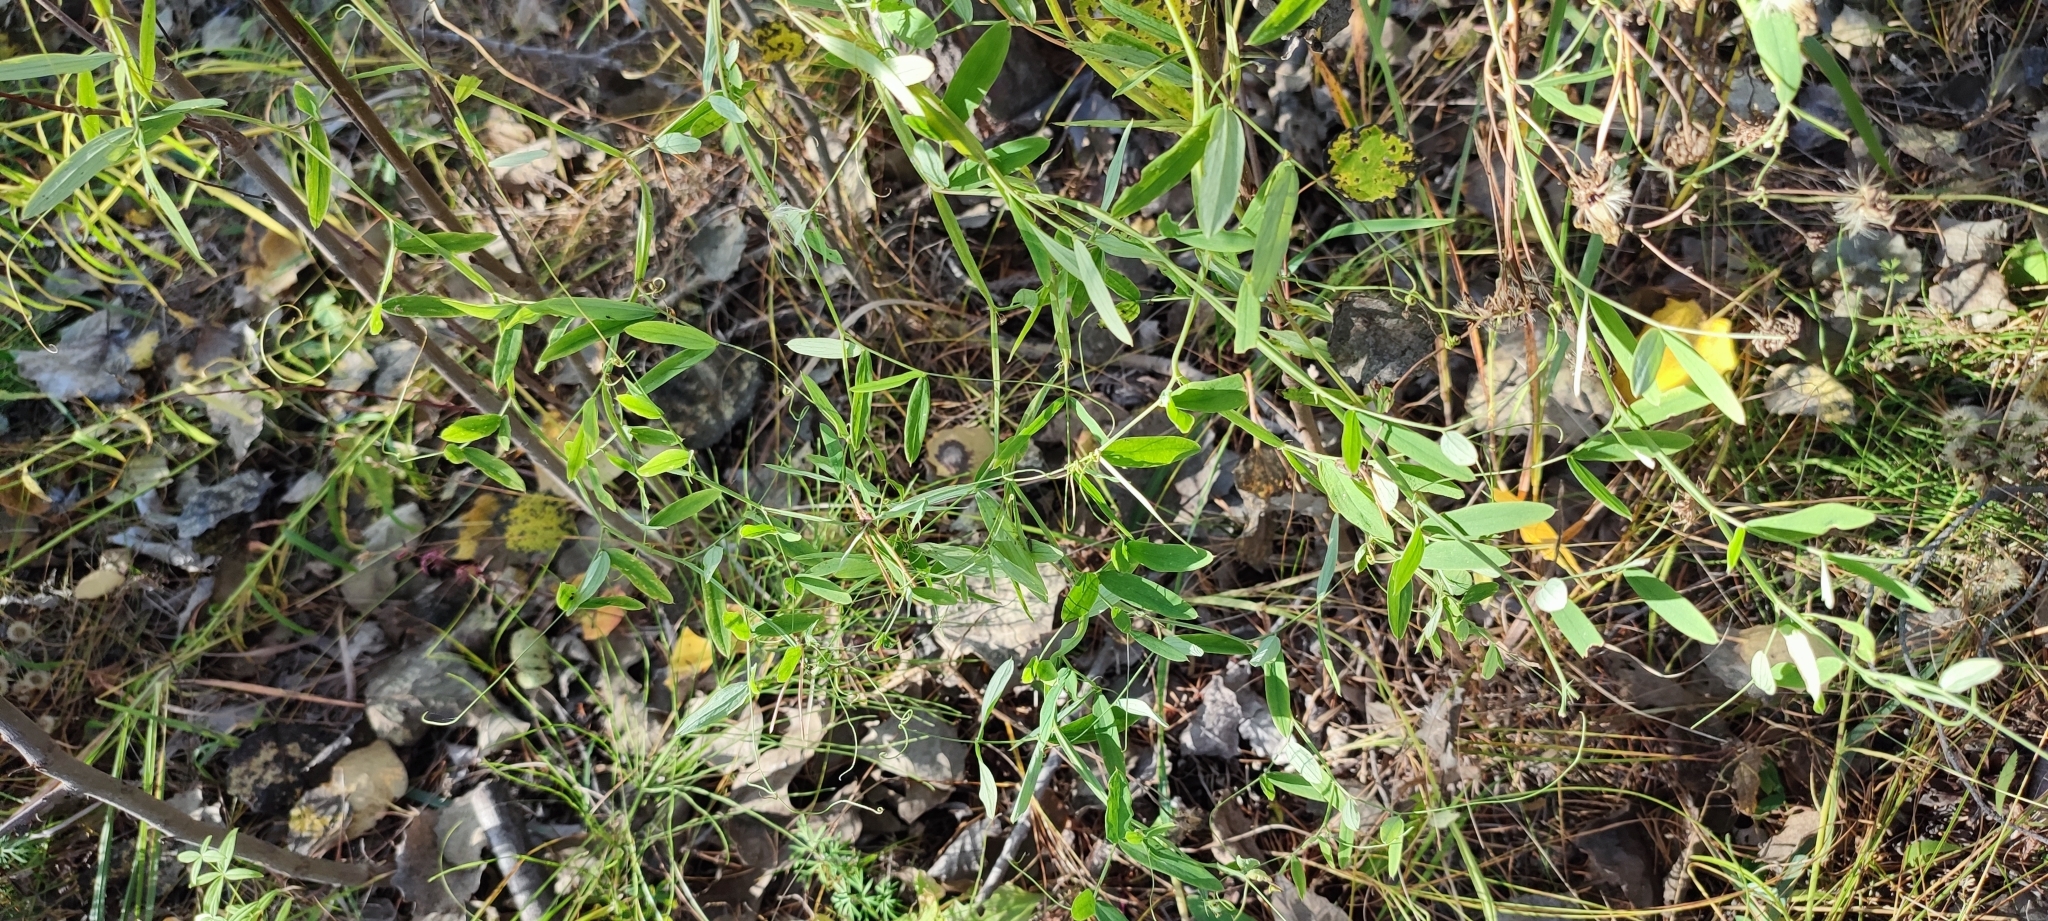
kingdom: Plantae
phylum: Tracheophyta
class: Magnoliopsida
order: Fabales
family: Fabaceae
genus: Lathyrus
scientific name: Lathyrus palustris
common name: Marsh pea
